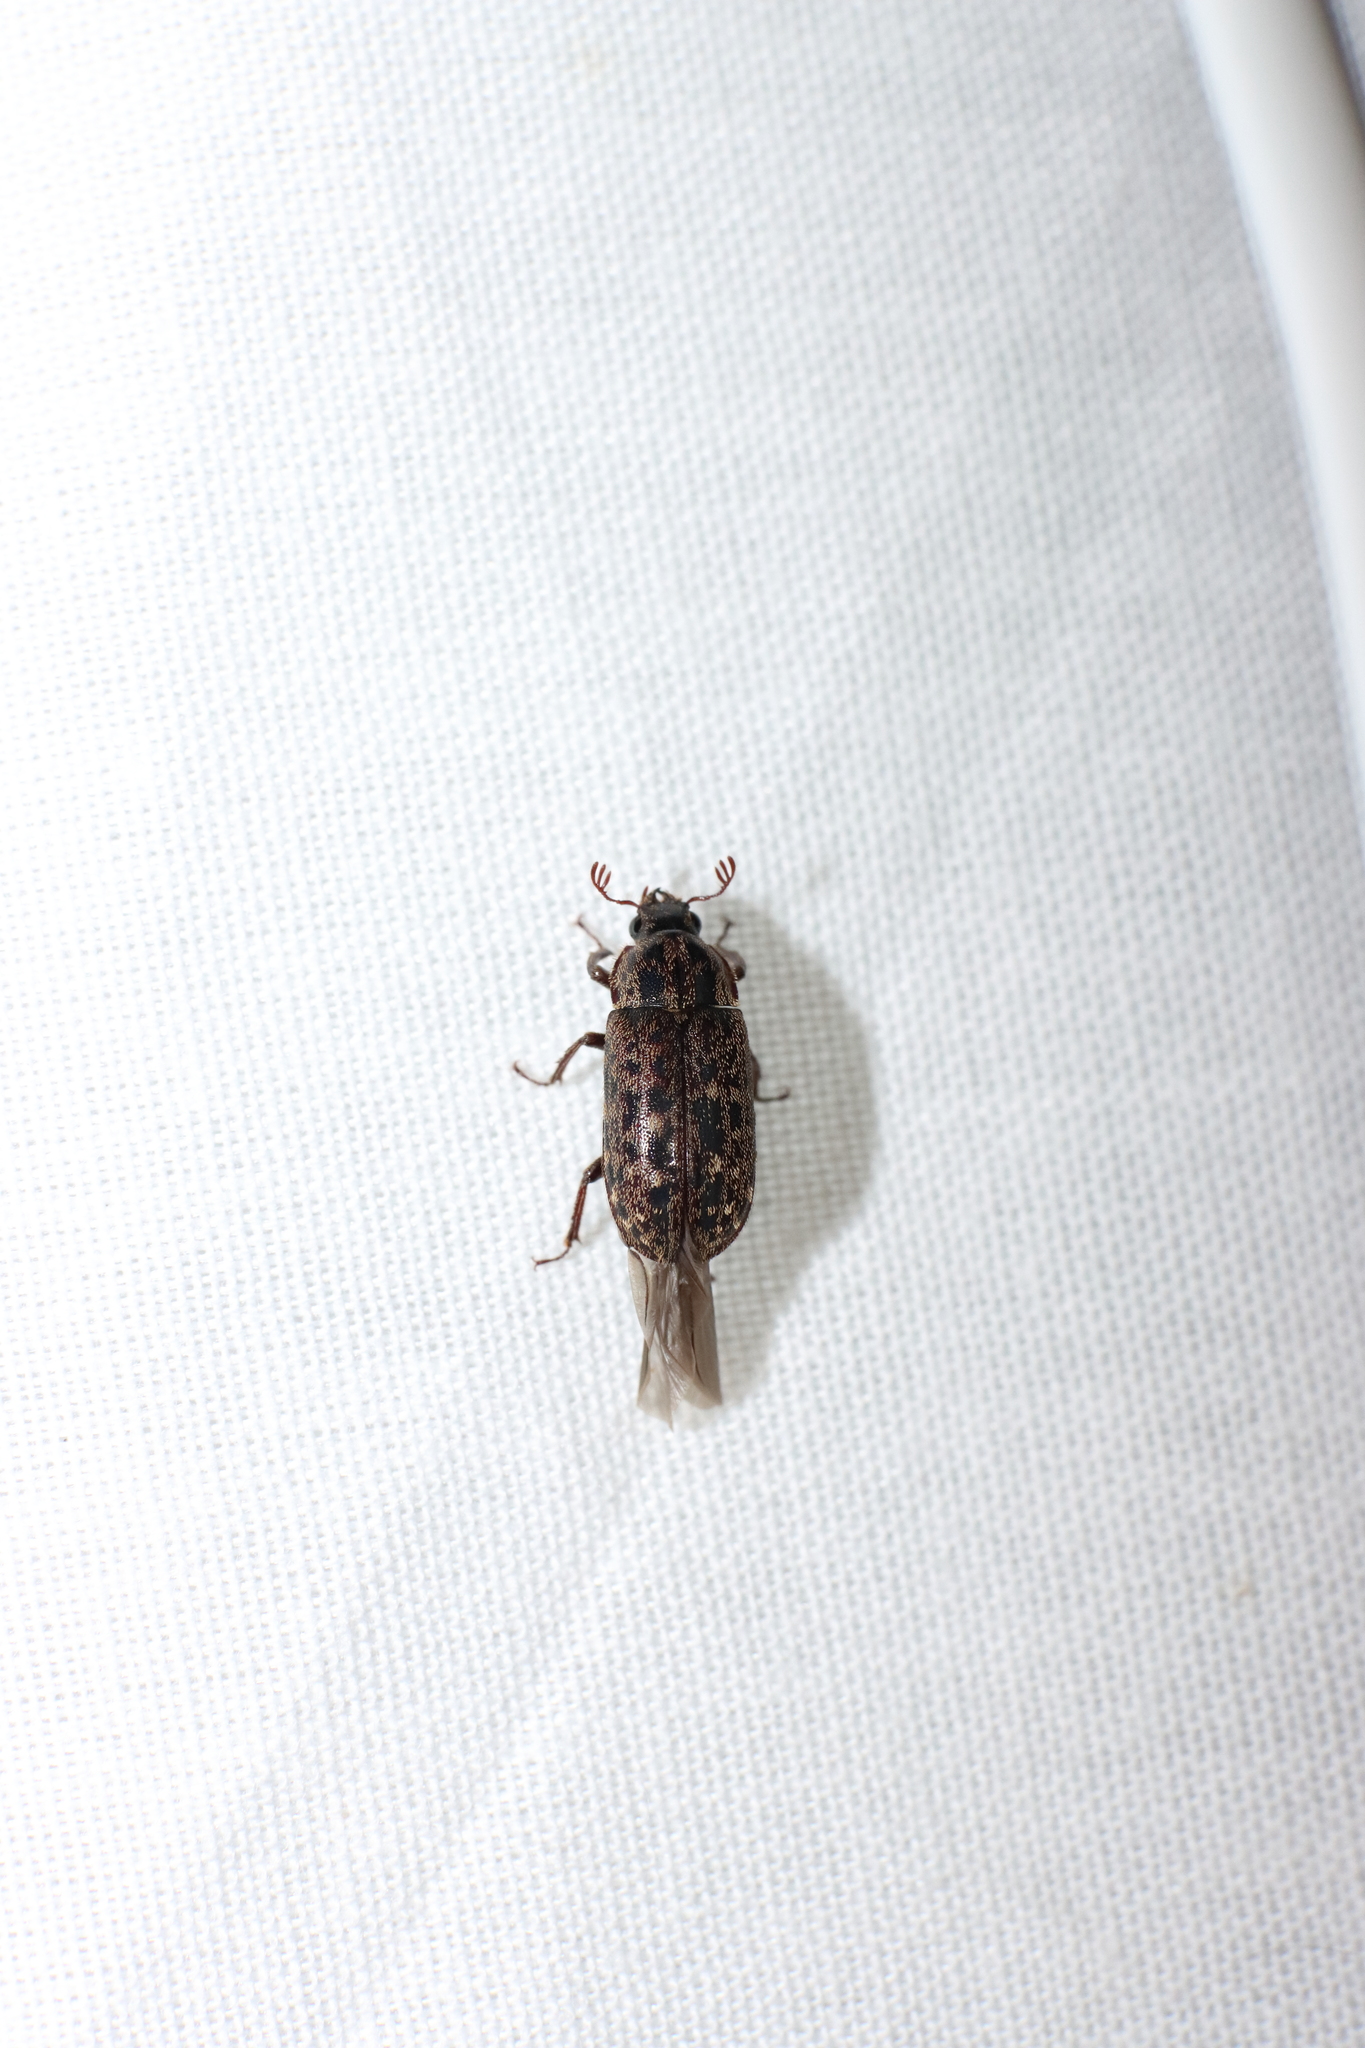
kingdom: Animalia
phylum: Arthropoda
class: Insecta
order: Coleoptera
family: Lucanidae
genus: Mitophyllus
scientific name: Mitophyllus irroratus
